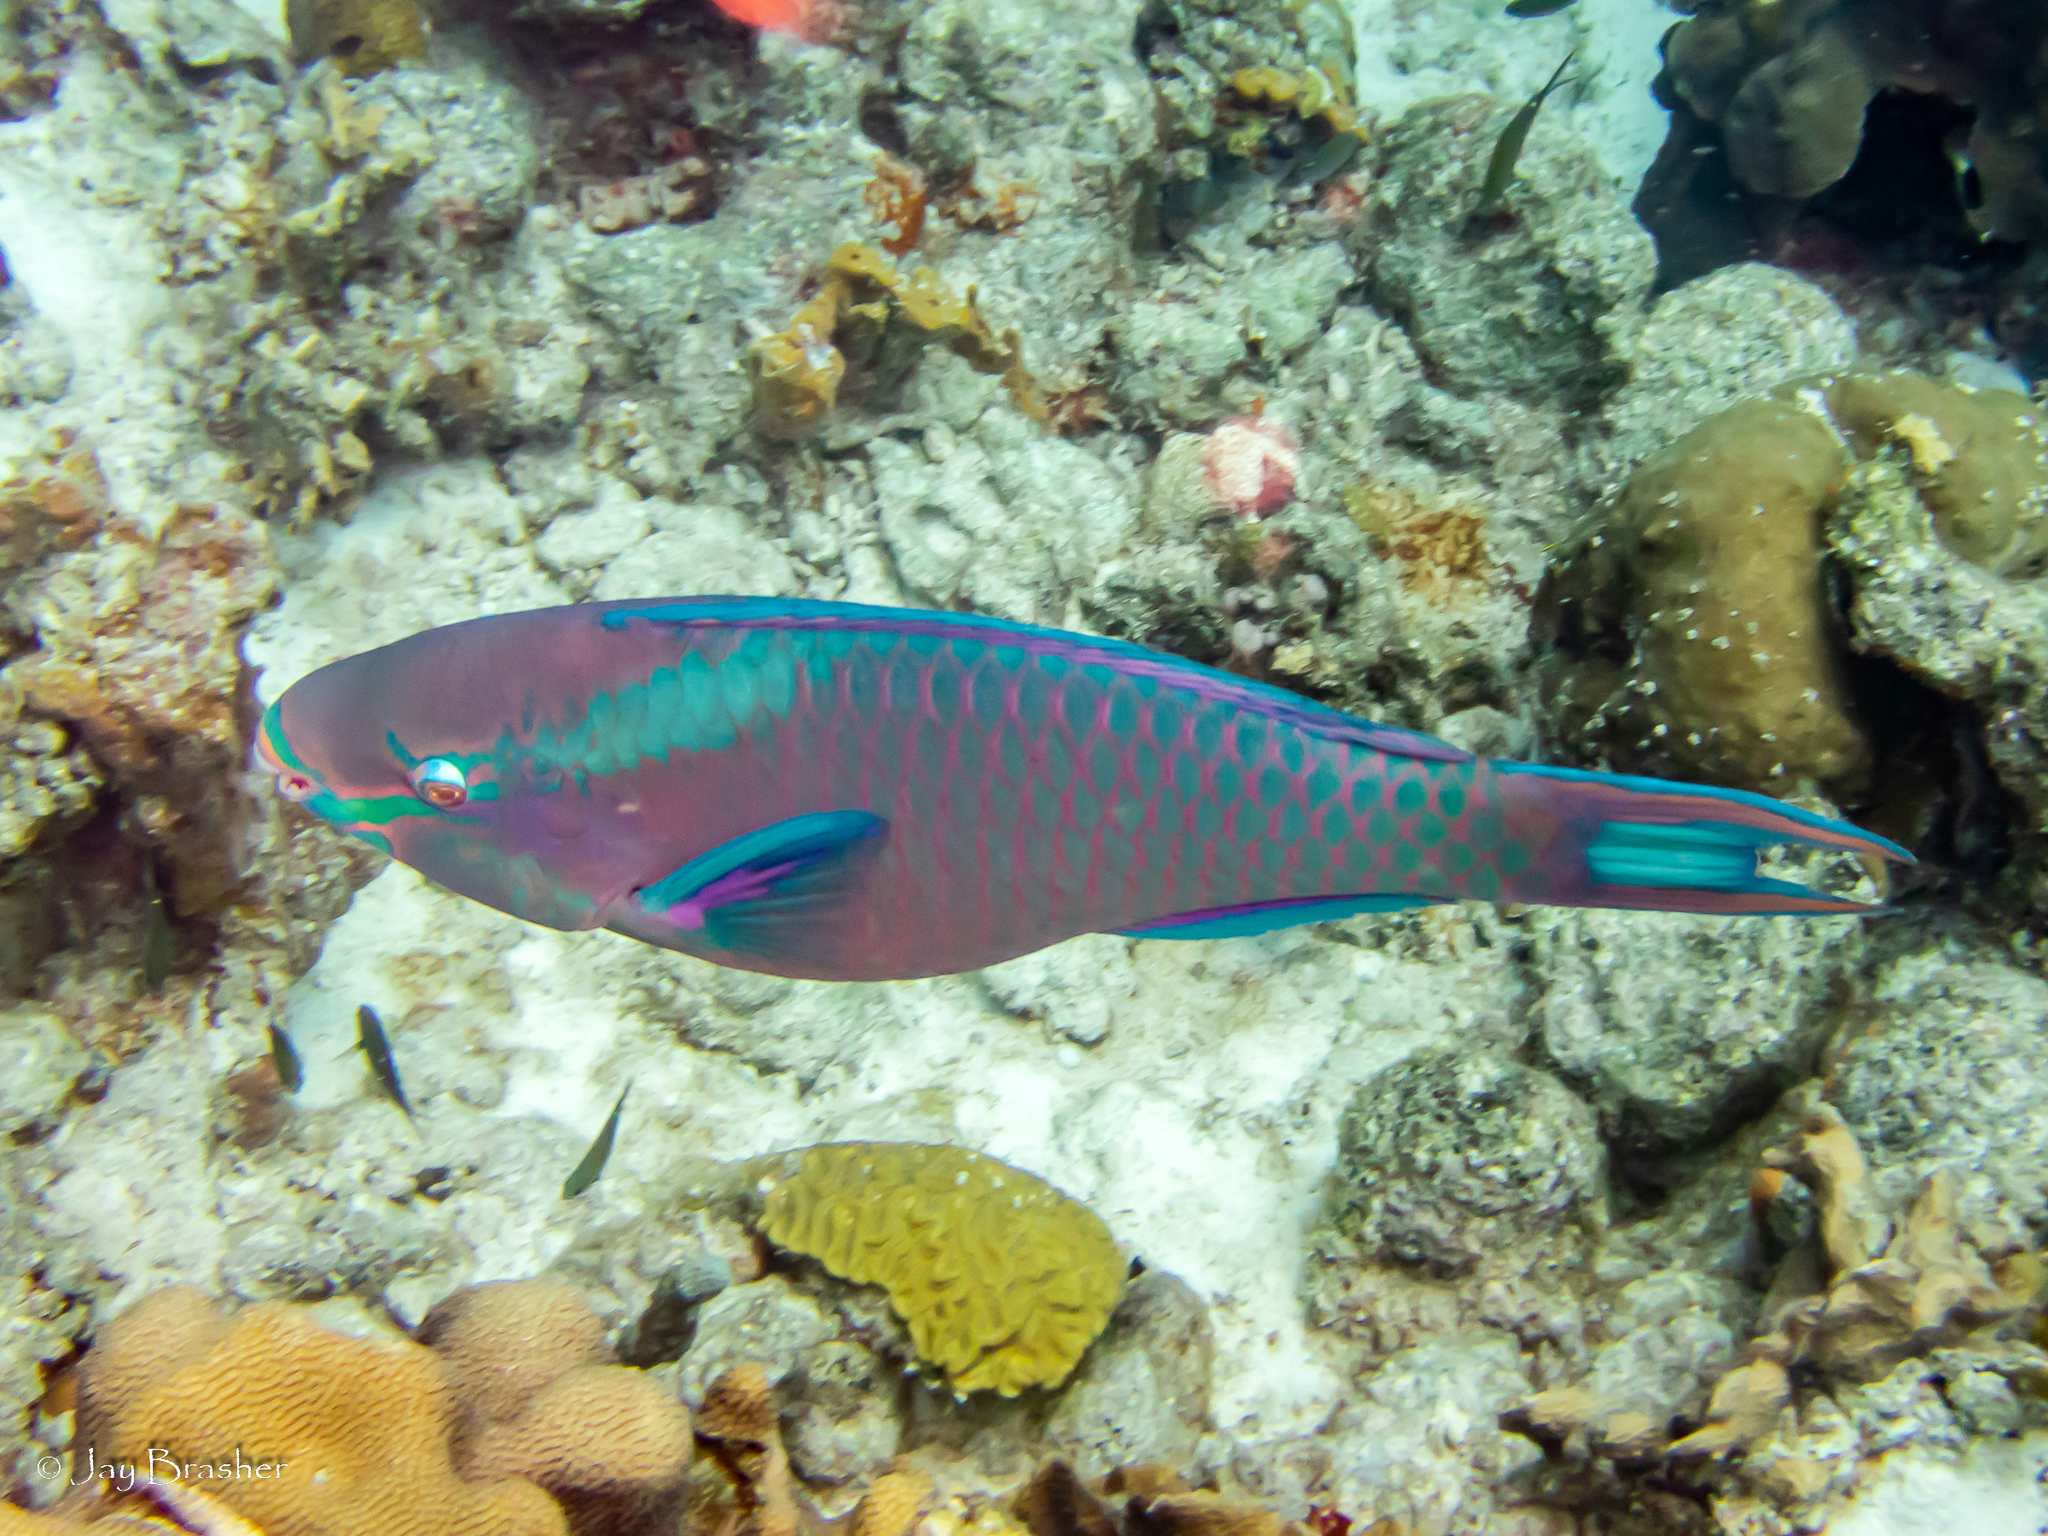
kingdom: Animalia
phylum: Chordata
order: Perciformes
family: Scaridae
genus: Scarus
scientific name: Scarus vetula
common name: Queen parrotfish
